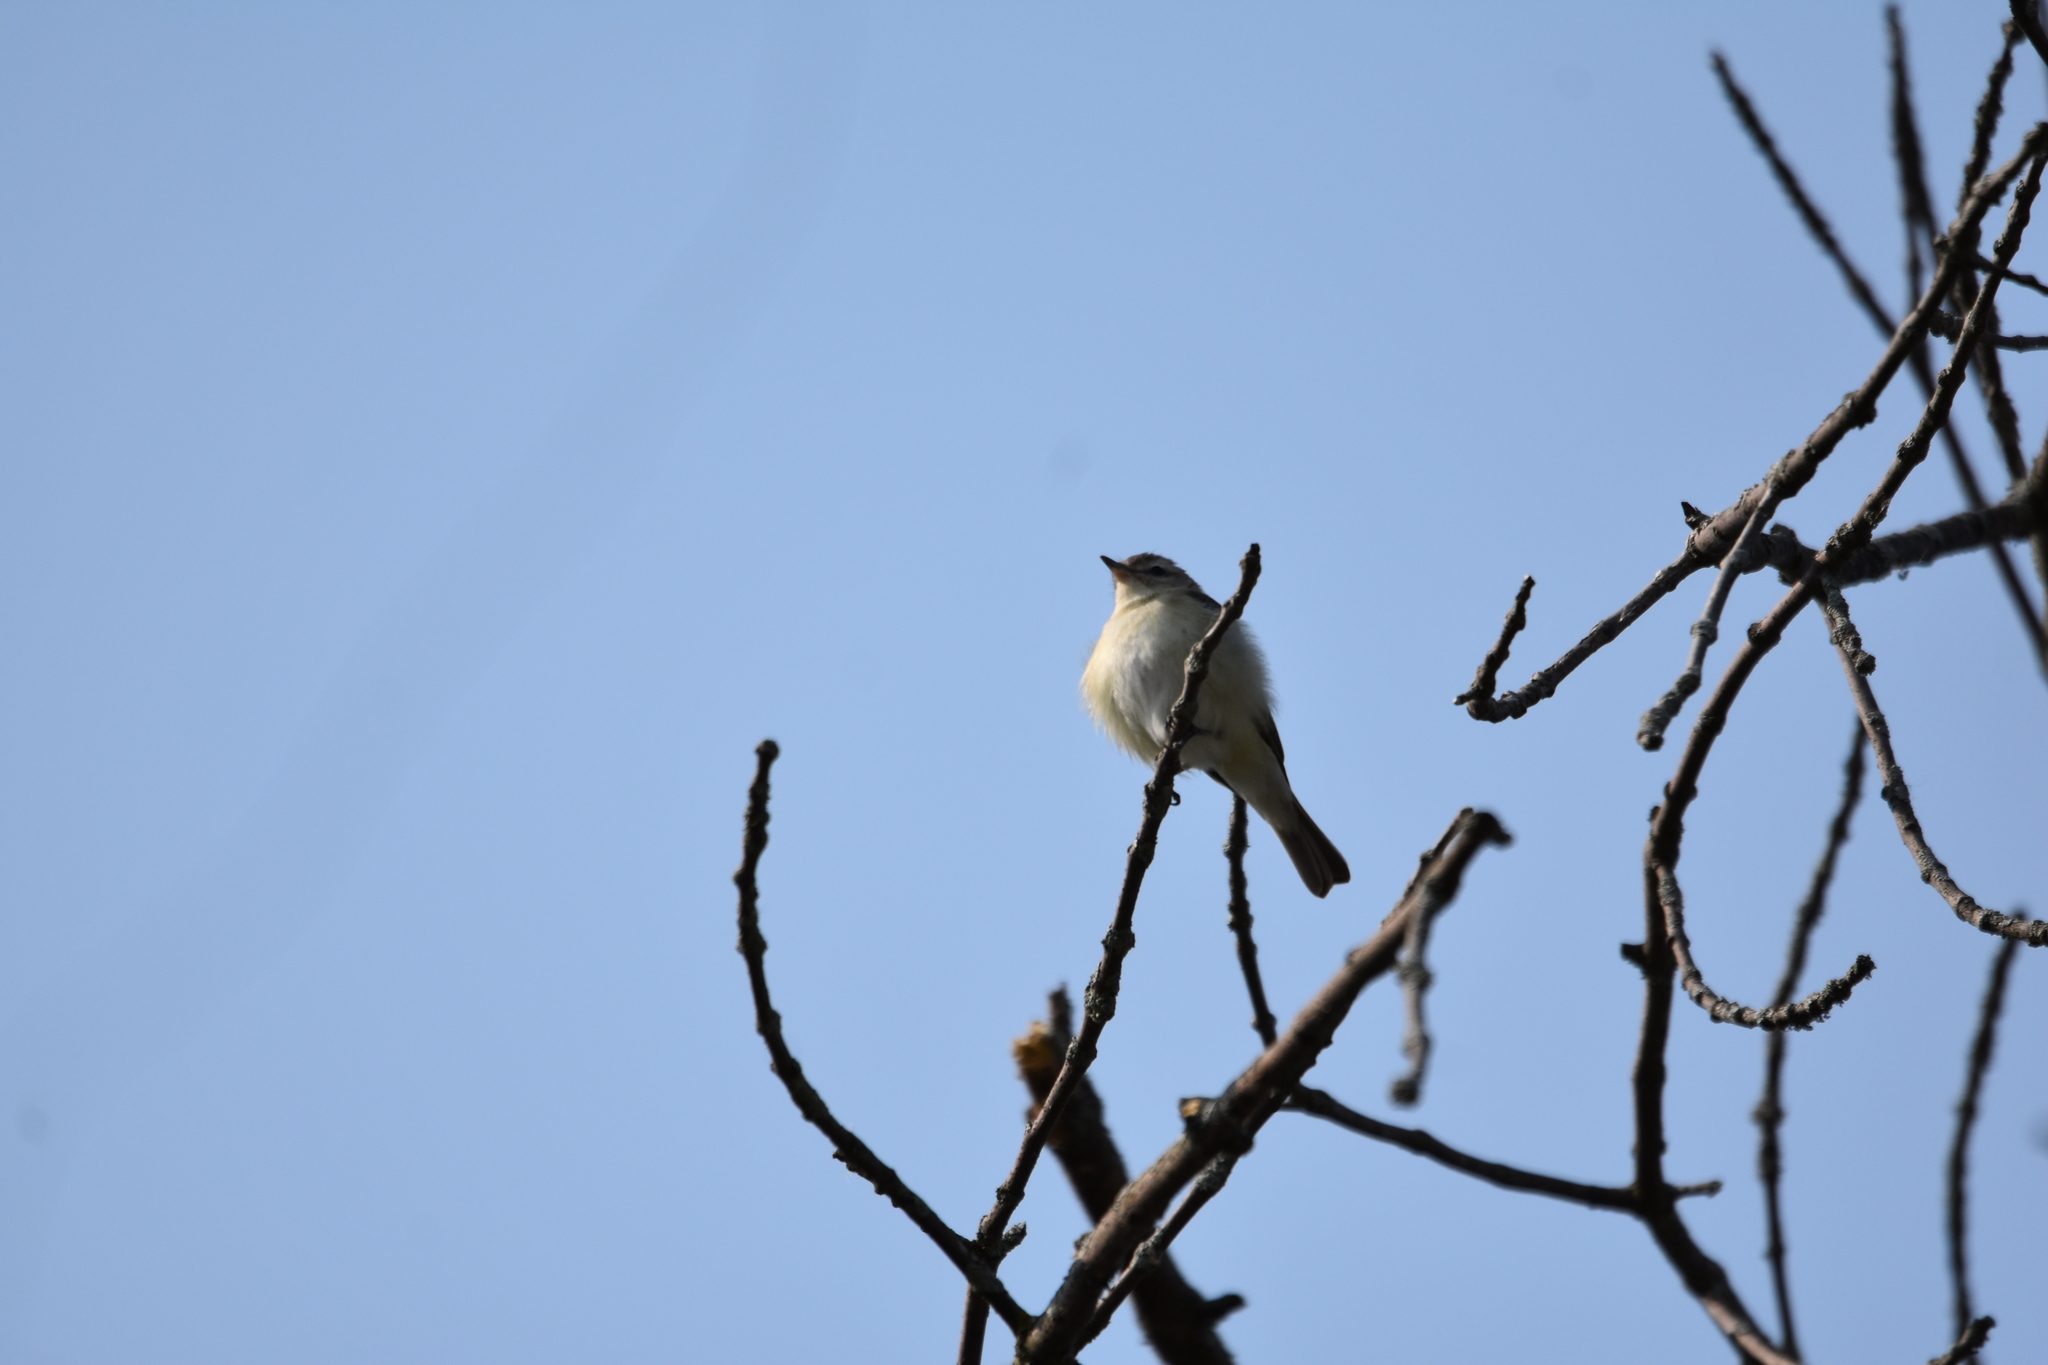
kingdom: Animalia
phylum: Chordata
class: Aves
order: Passeriformes
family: Vireonidae
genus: Vireo
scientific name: Vireo gilvus
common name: Warbling vireo
